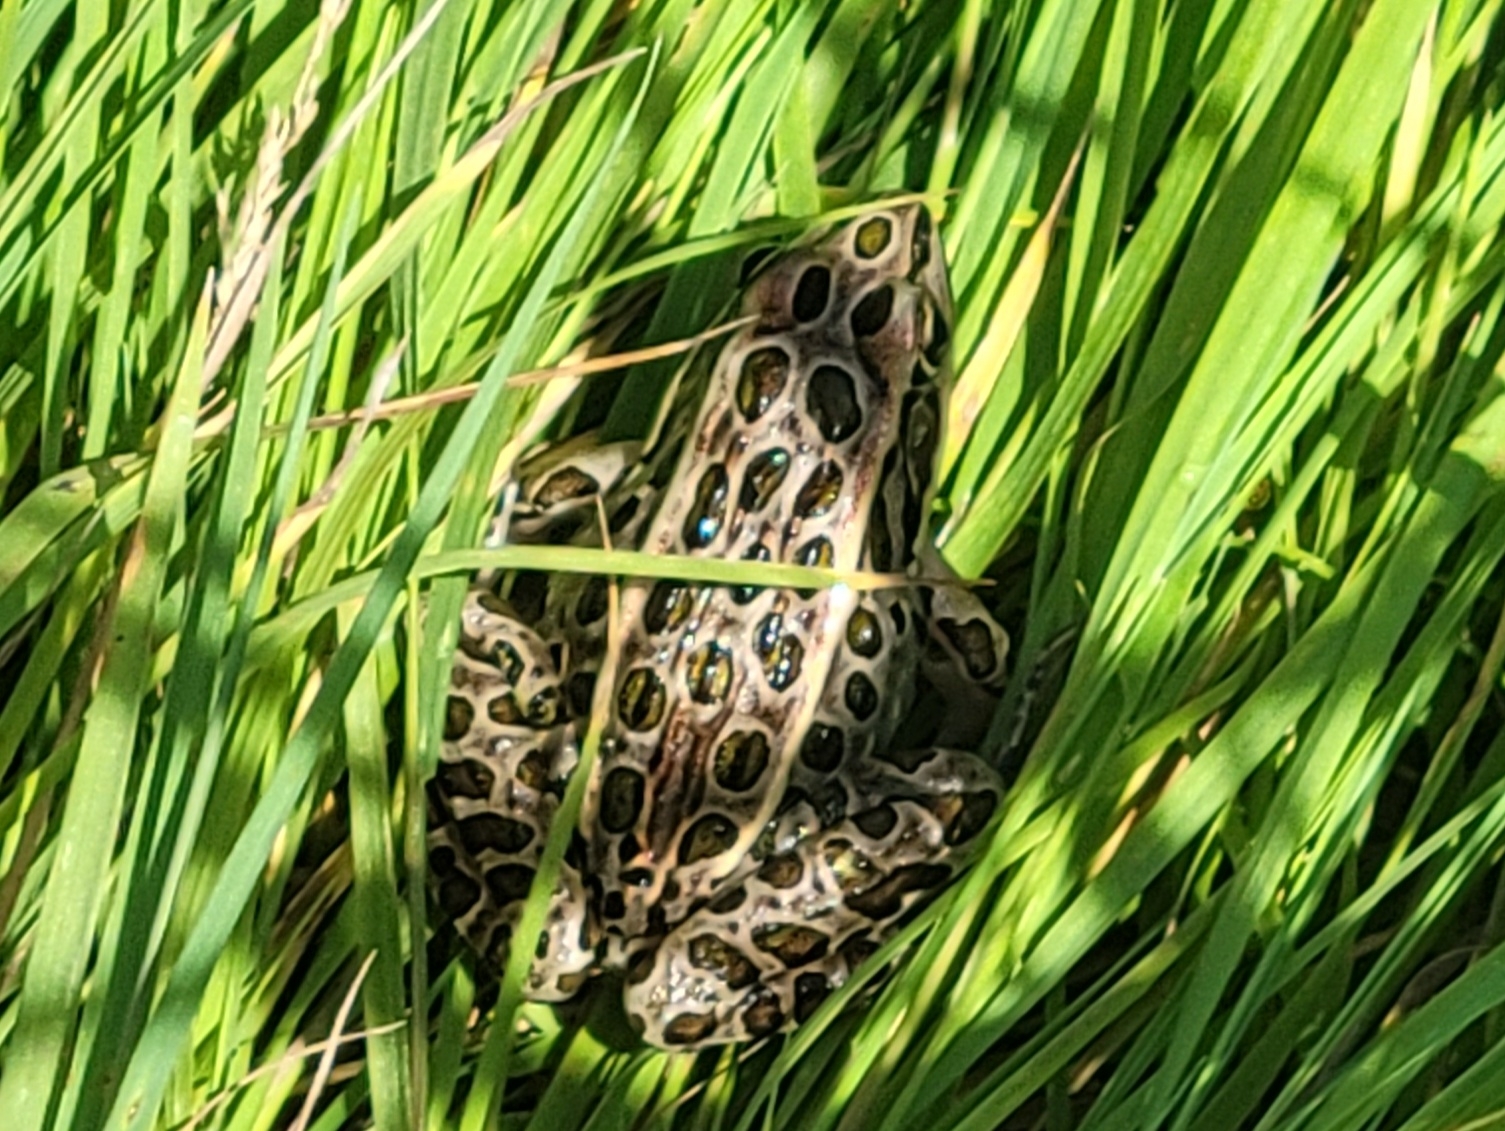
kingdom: Animalia
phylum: Chordata
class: Amphibia
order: Anura
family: Ranidae
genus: Lithobates
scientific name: Lithobates pipiens
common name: Northern leopard frog
